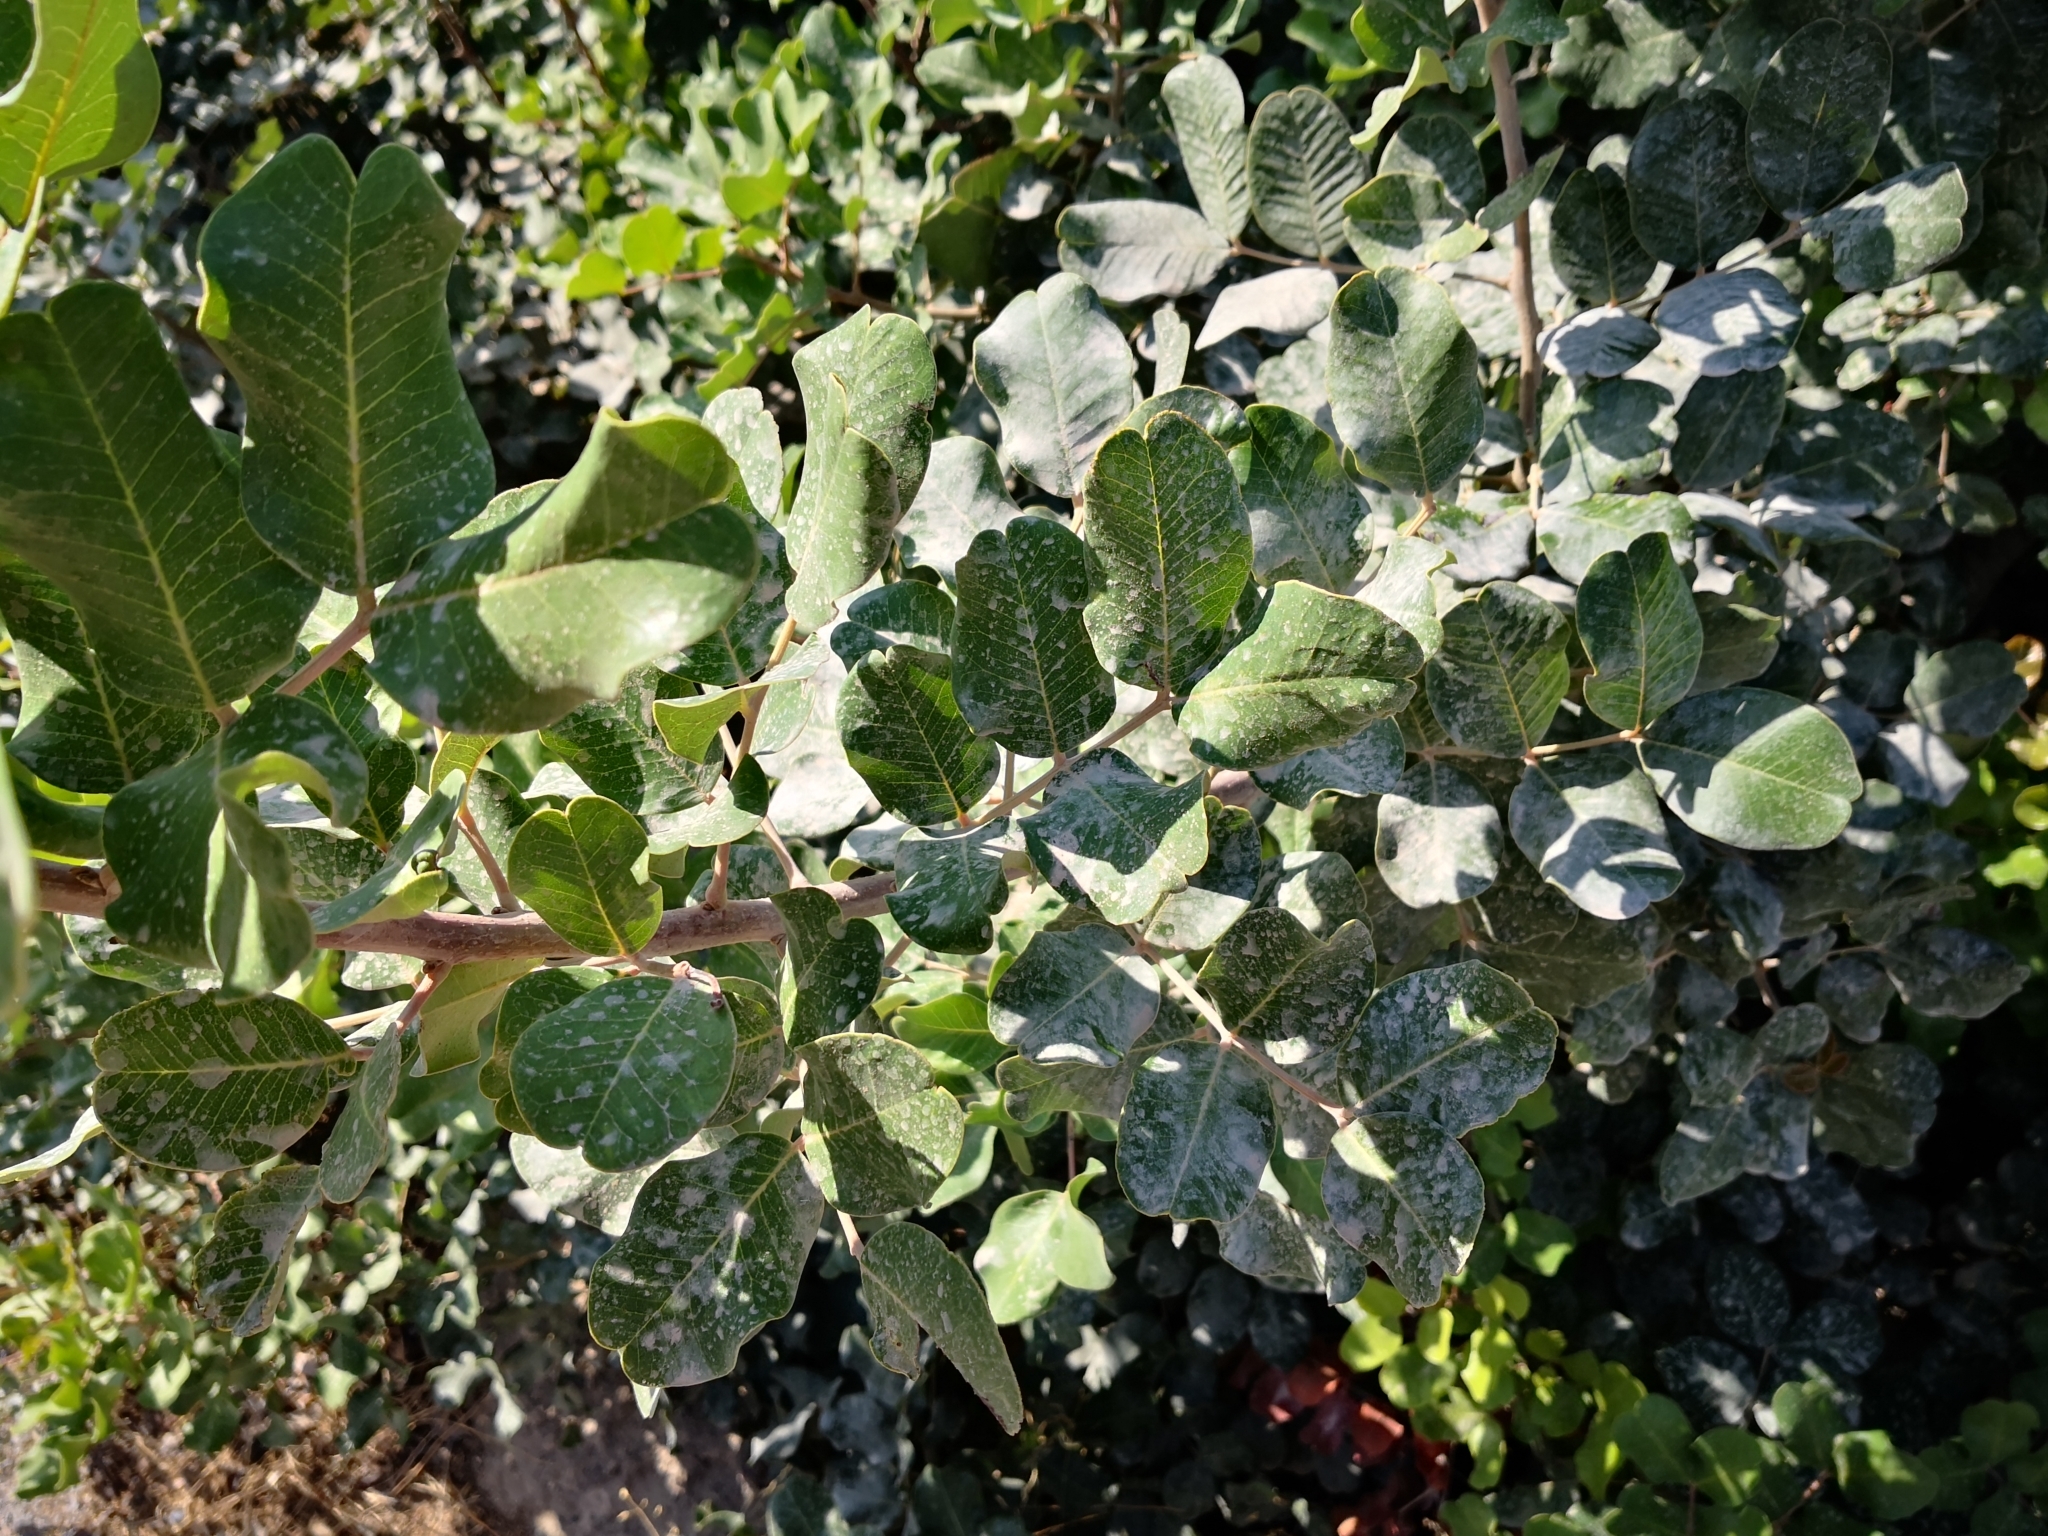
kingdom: Plantae
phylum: Tracheophyta
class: Magnoliopsida
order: Fabales
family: Fabaceae
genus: Ceratonia
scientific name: Ceratonia siliqua
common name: Carob
